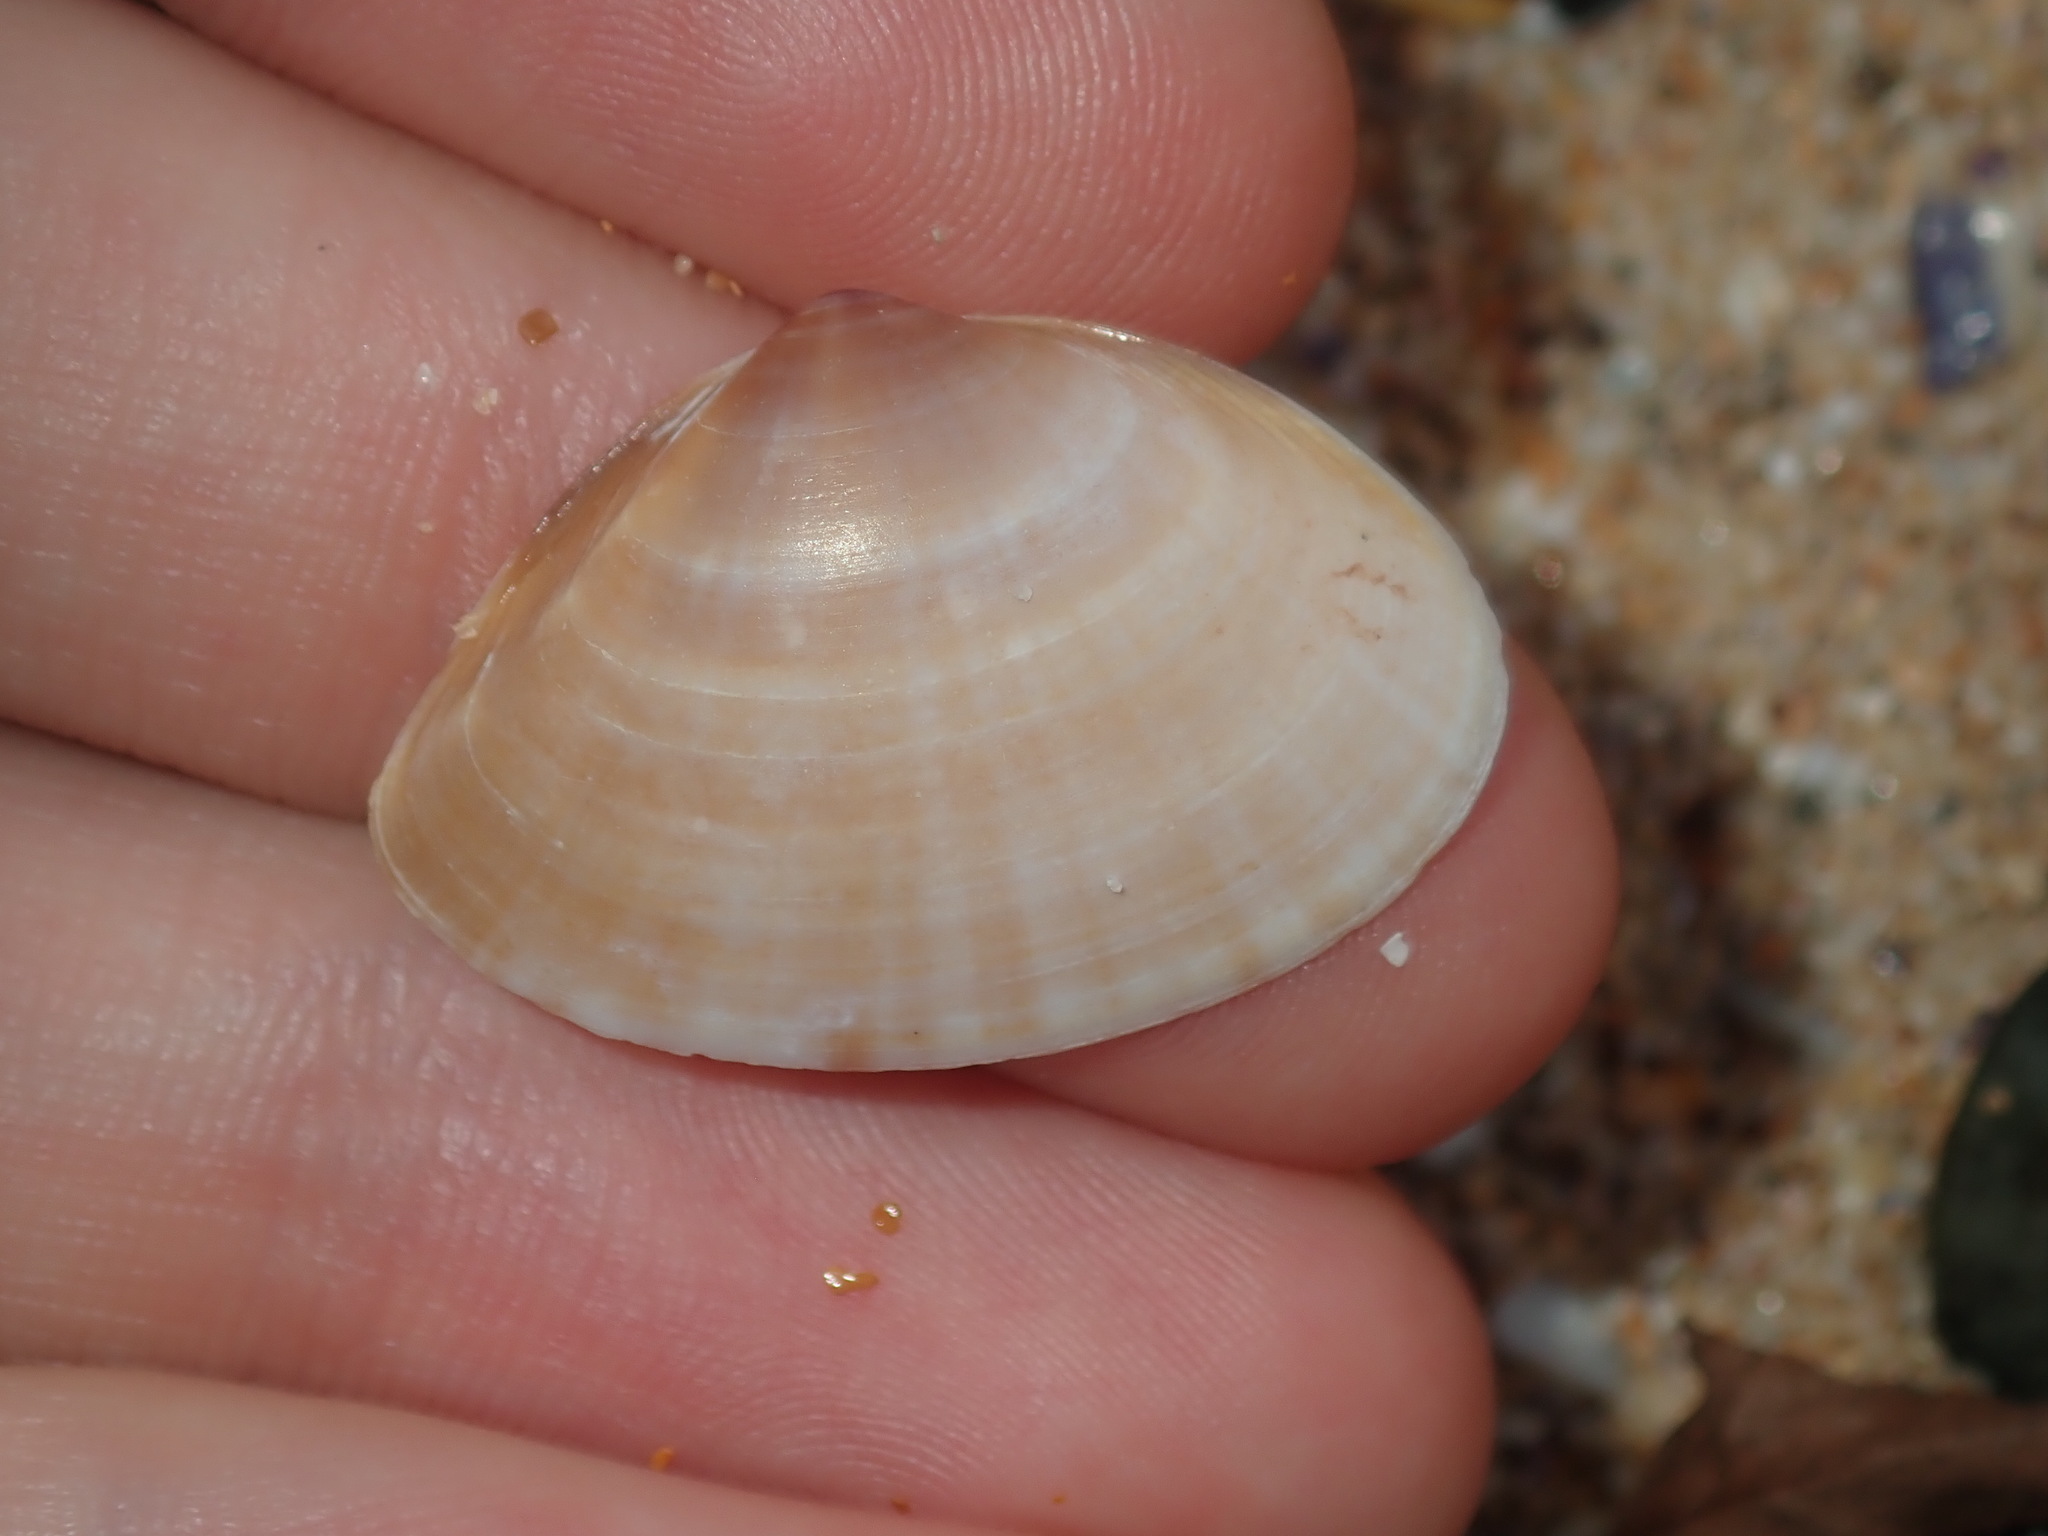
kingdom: Animalia
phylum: Mollusca
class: Bivalvia
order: Venerida
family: Mactridae
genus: Mactra
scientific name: Mactra pusilla
